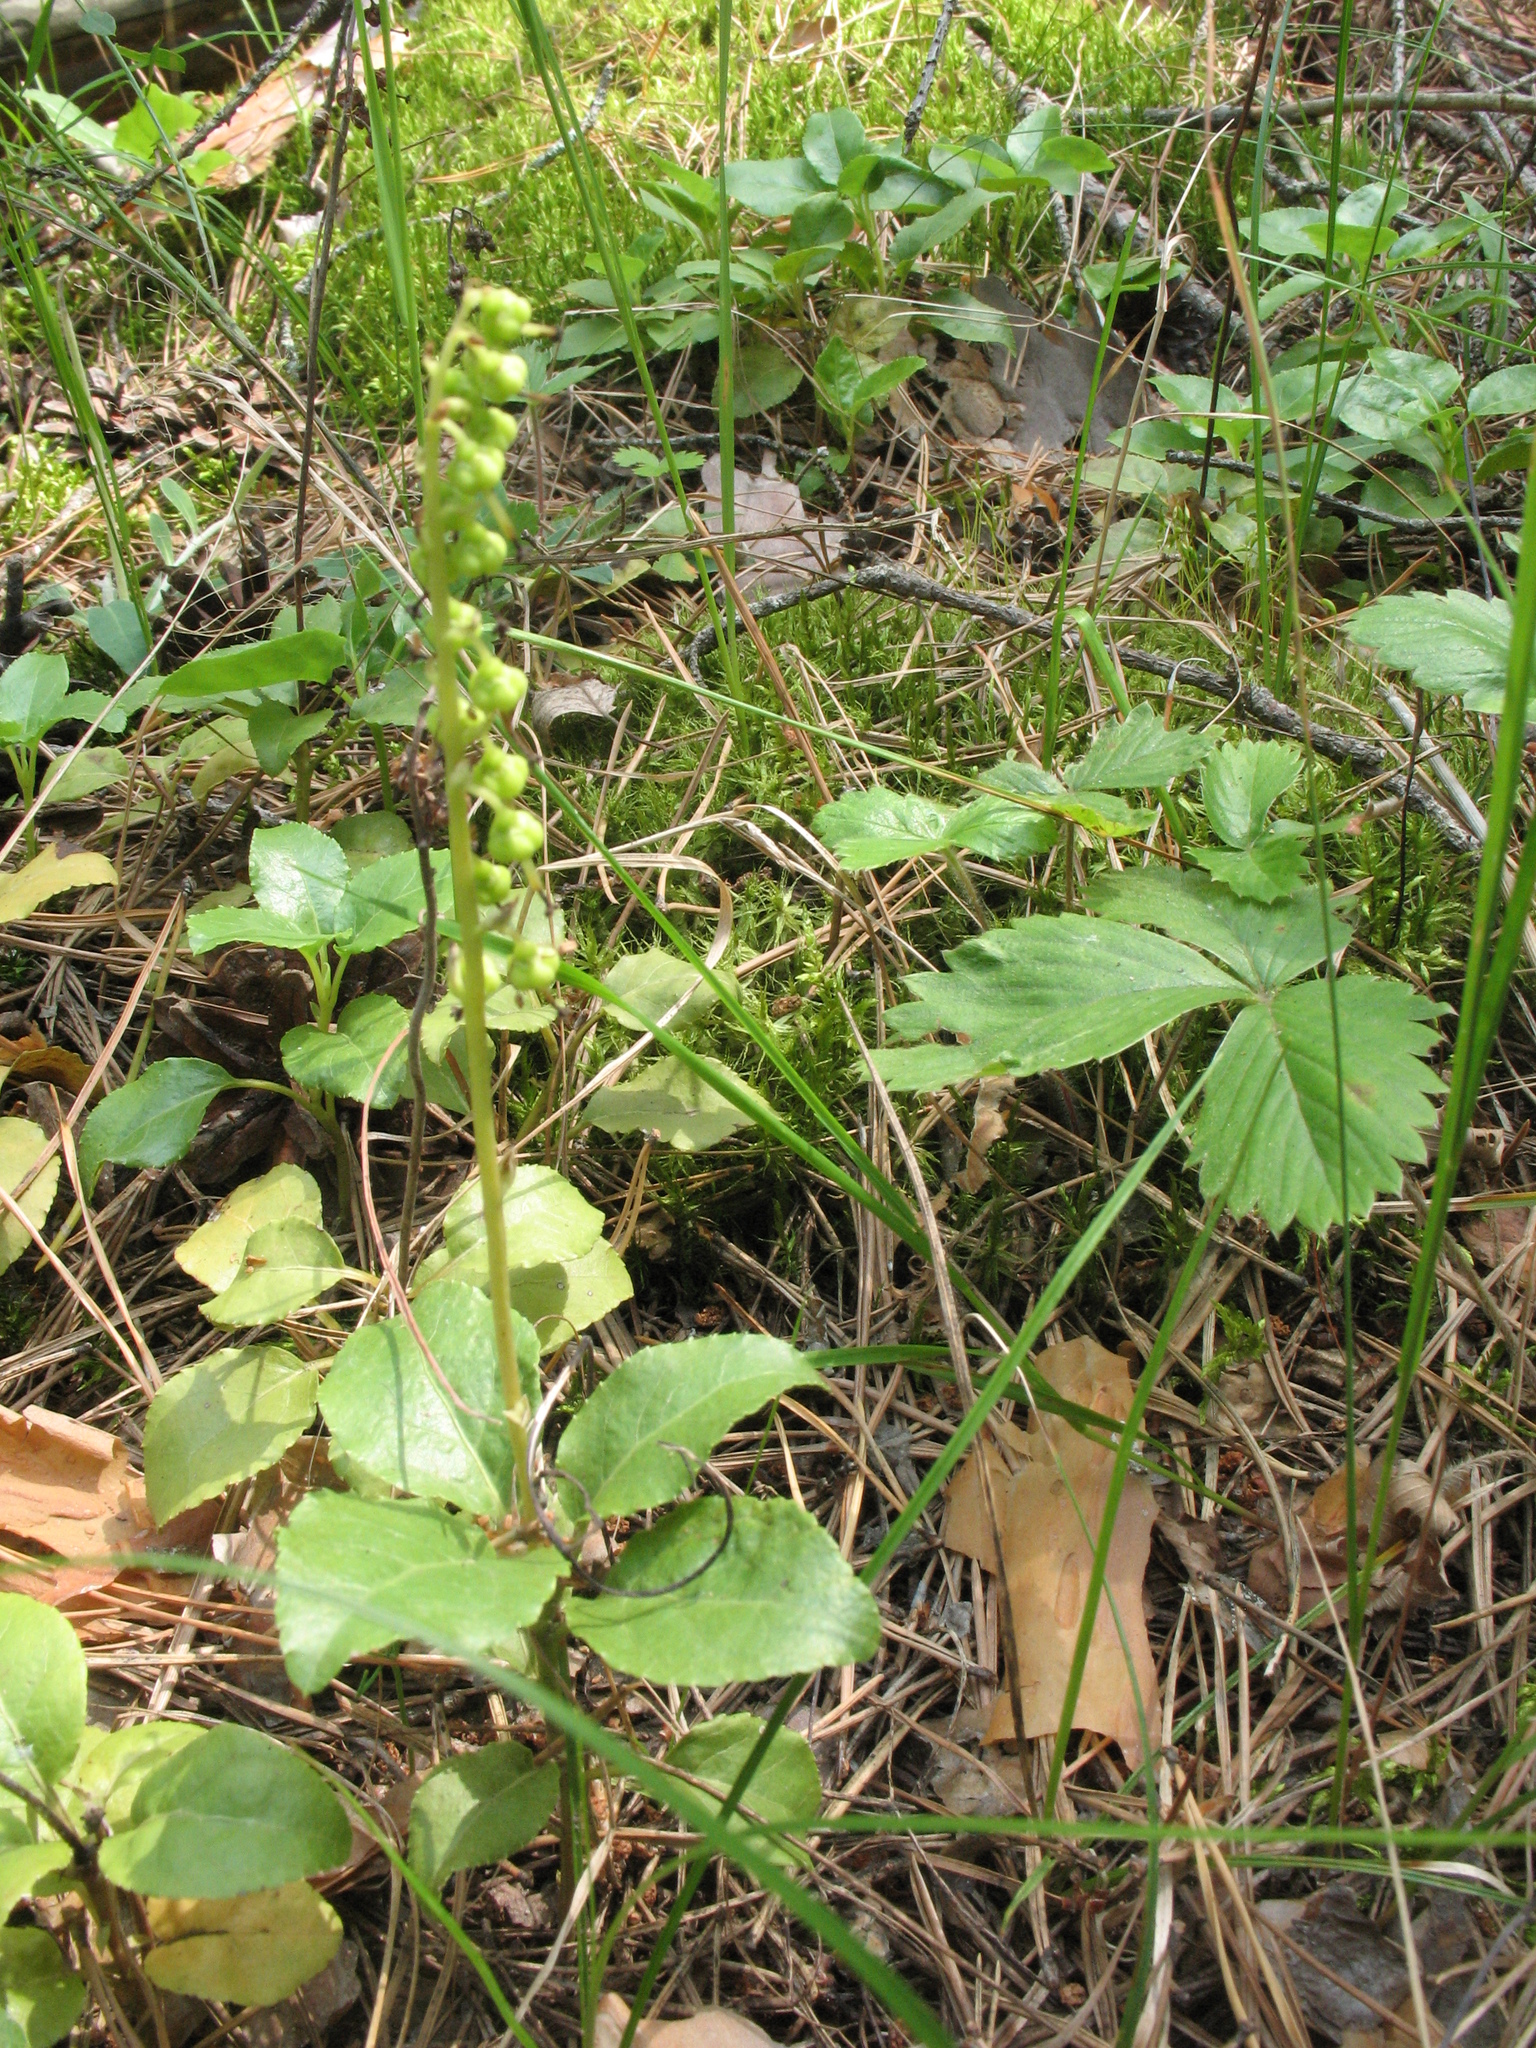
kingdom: Plantae
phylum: Tracheophyta
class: Magnoliopsida
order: Ericales
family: Ericaceae
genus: Orthilia
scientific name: Orthilia secunda
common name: One-sided orthilia
